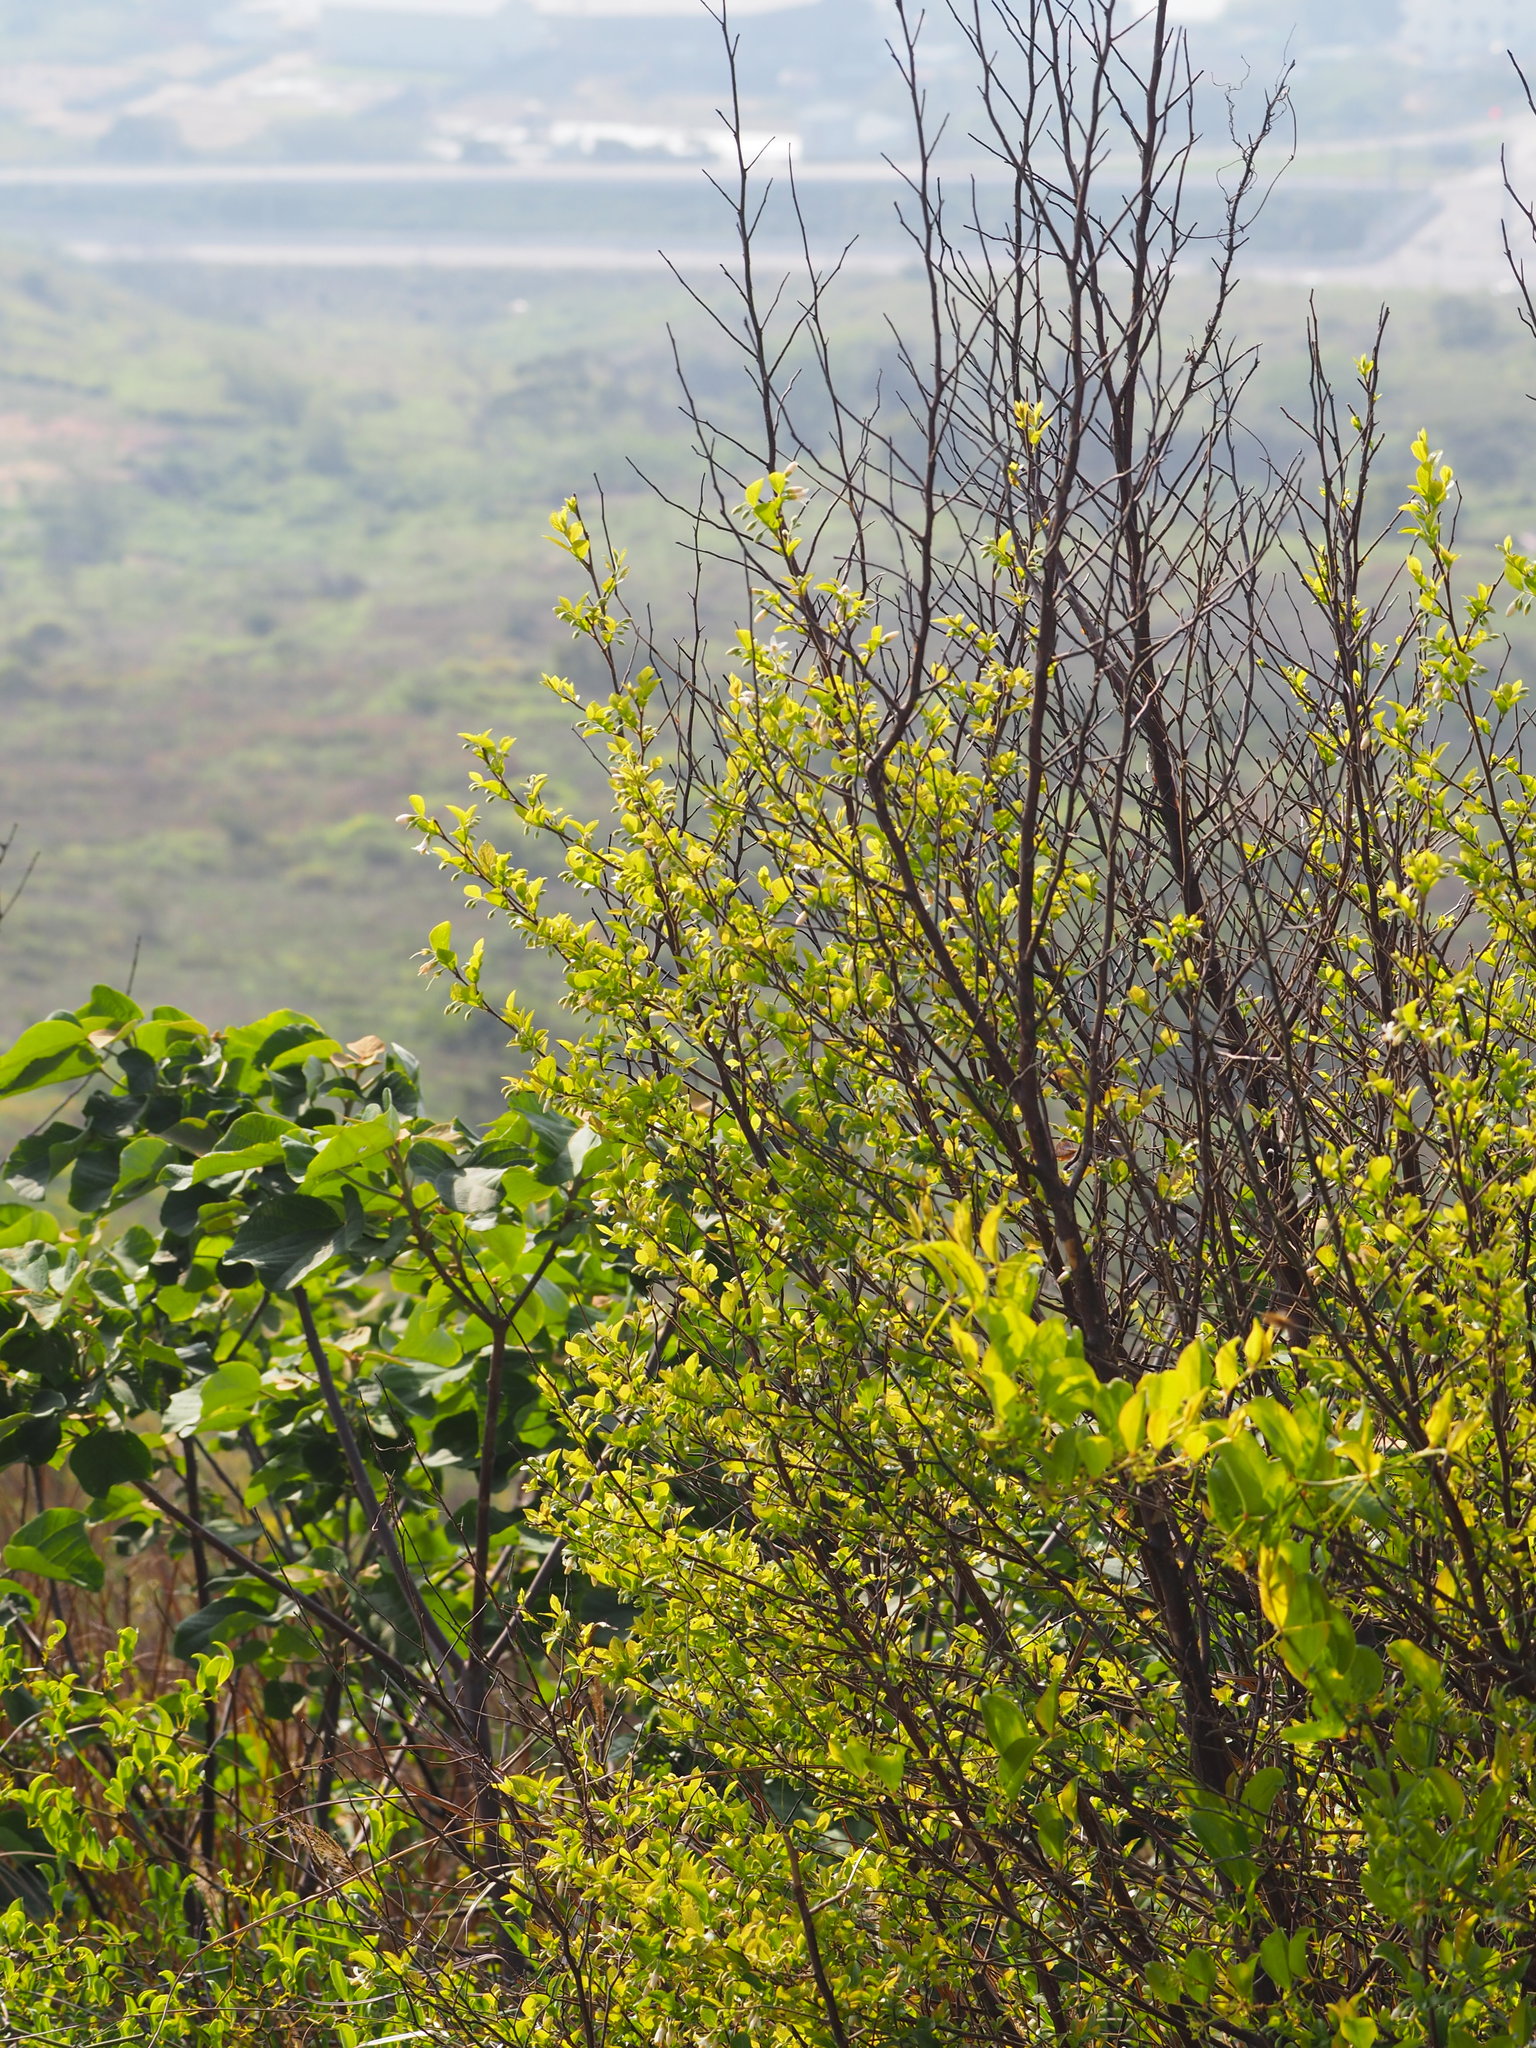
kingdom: Plantae
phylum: Tracheophyta
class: Magnoliopsida
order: Ericales
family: Styracaceae
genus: Styrax
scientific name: Styrax faberi
